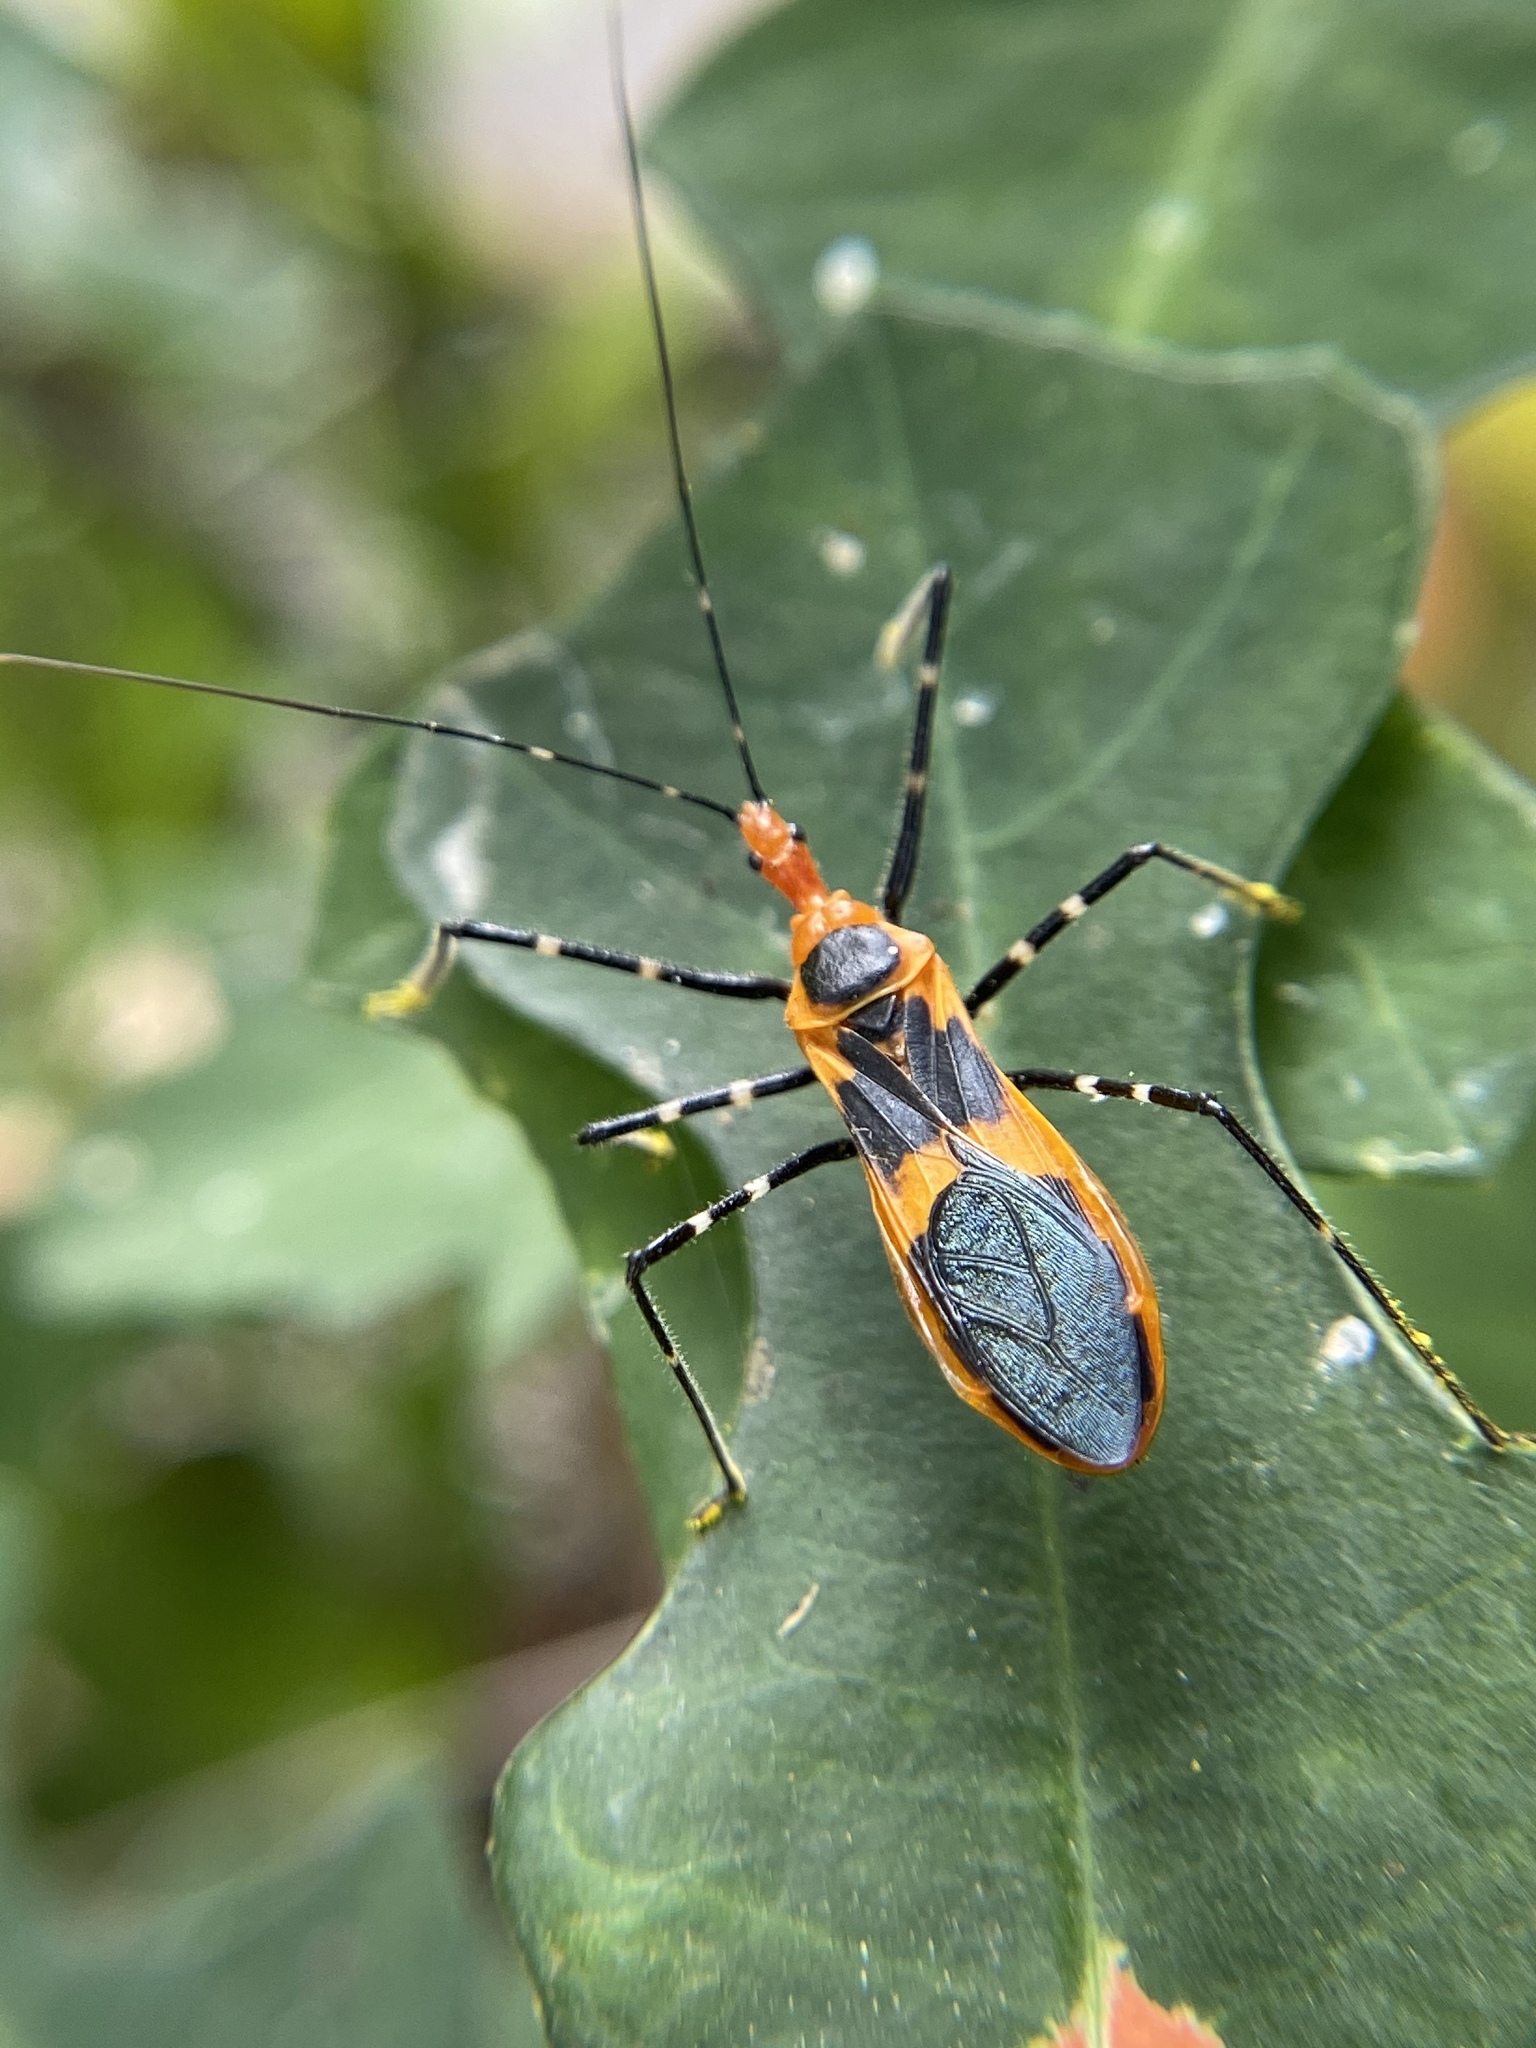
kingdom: Animalia
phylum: Arthropoda
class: Insecta
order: Hemiptera
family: Reduviidae
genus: Zelus
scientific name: Zelus longipes
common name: Milkweed assassin bug
